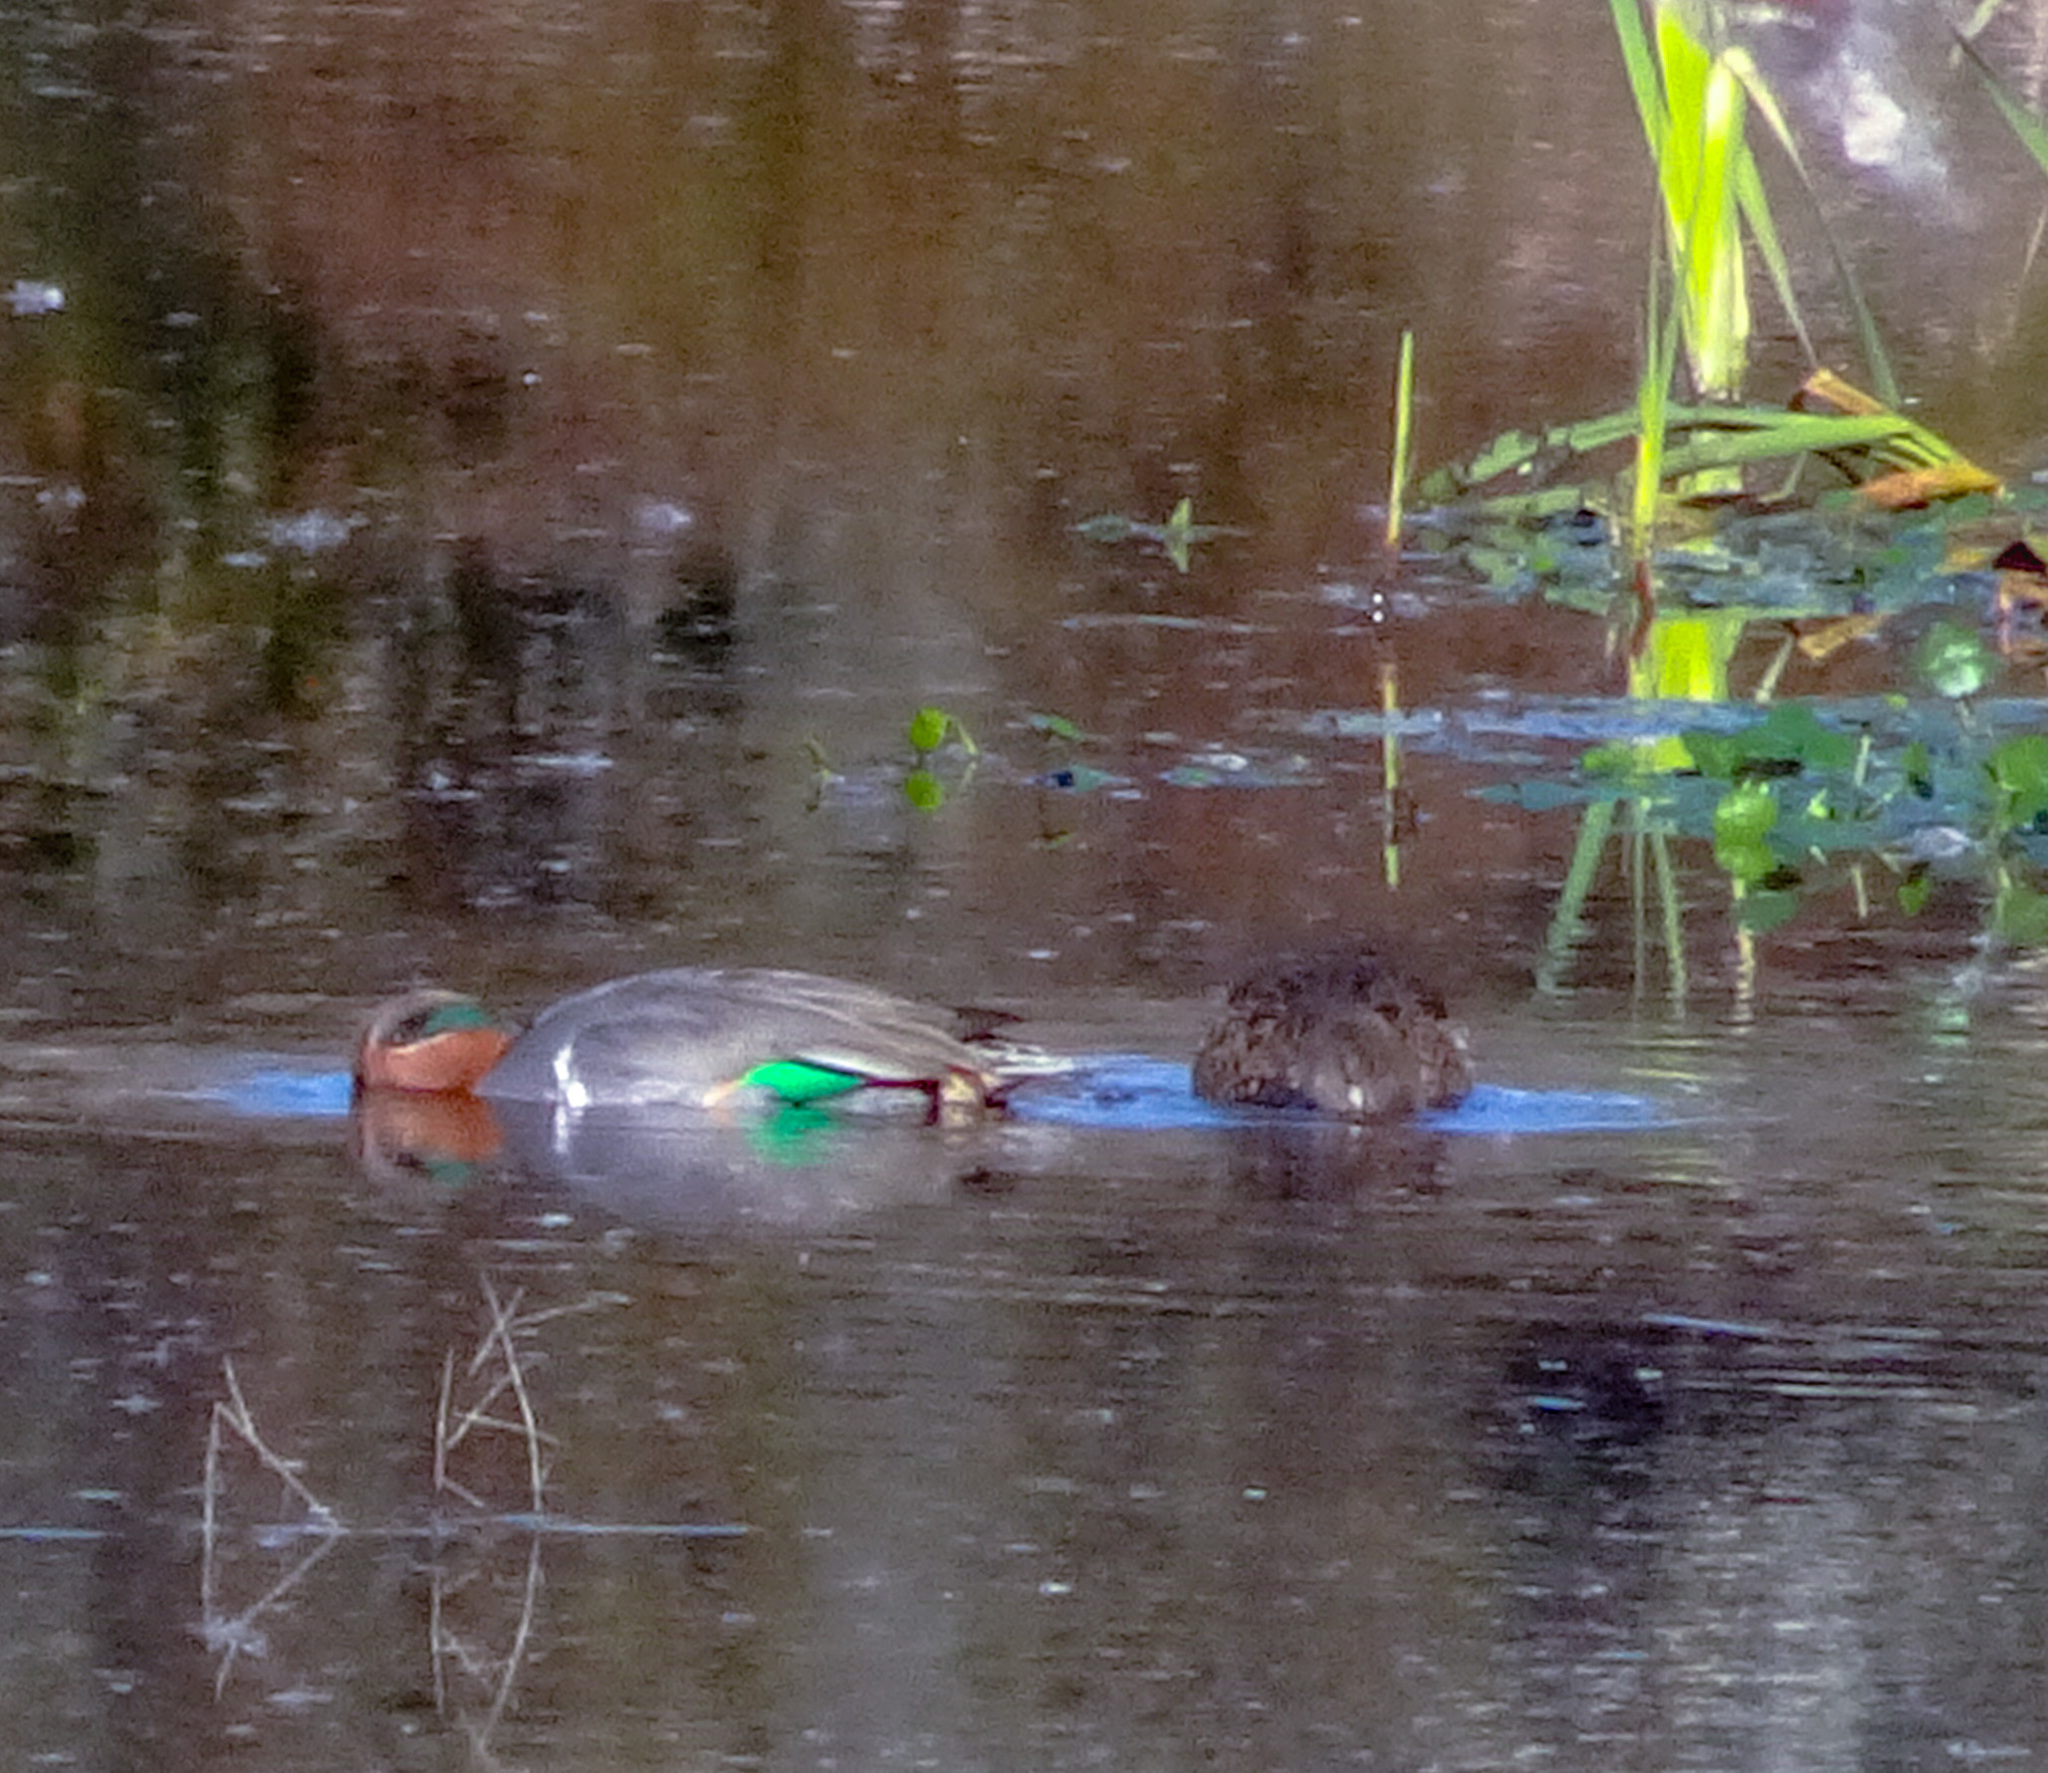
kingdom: Animalia
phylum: Chordata
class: Aves
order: Anseriformes
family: Anatidae
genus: Anas
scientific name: Anas crecca
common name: Eurasian teal
